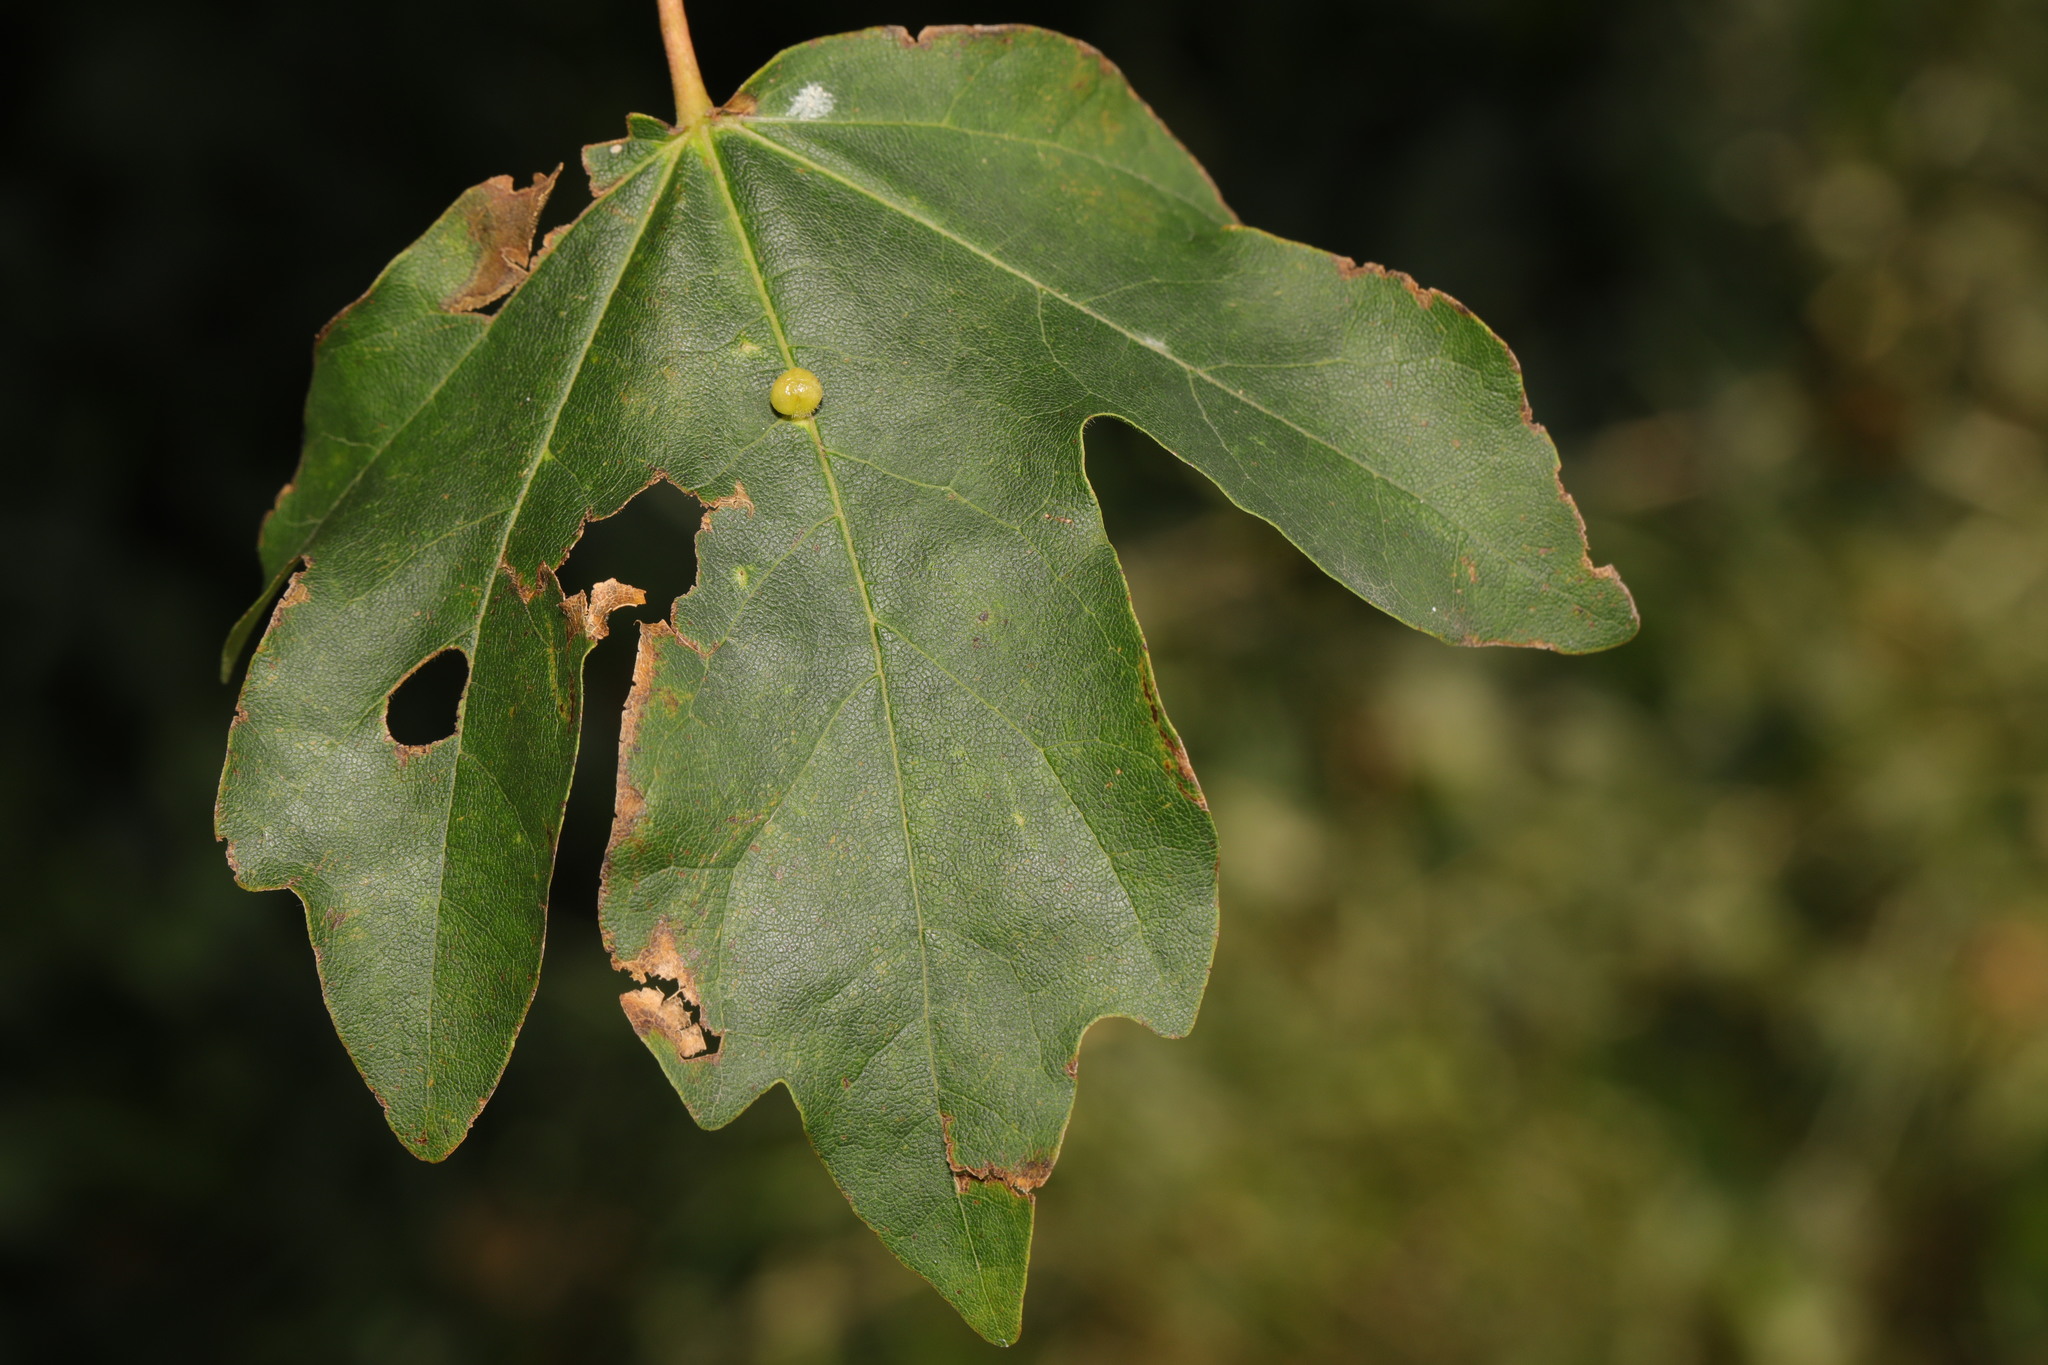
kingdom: Plantae
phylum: Tracheophyta
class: Magnoliopsida
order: Sapindales
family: Sapindaceae
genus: Acer
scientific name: Acer campestre
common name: Field maple
